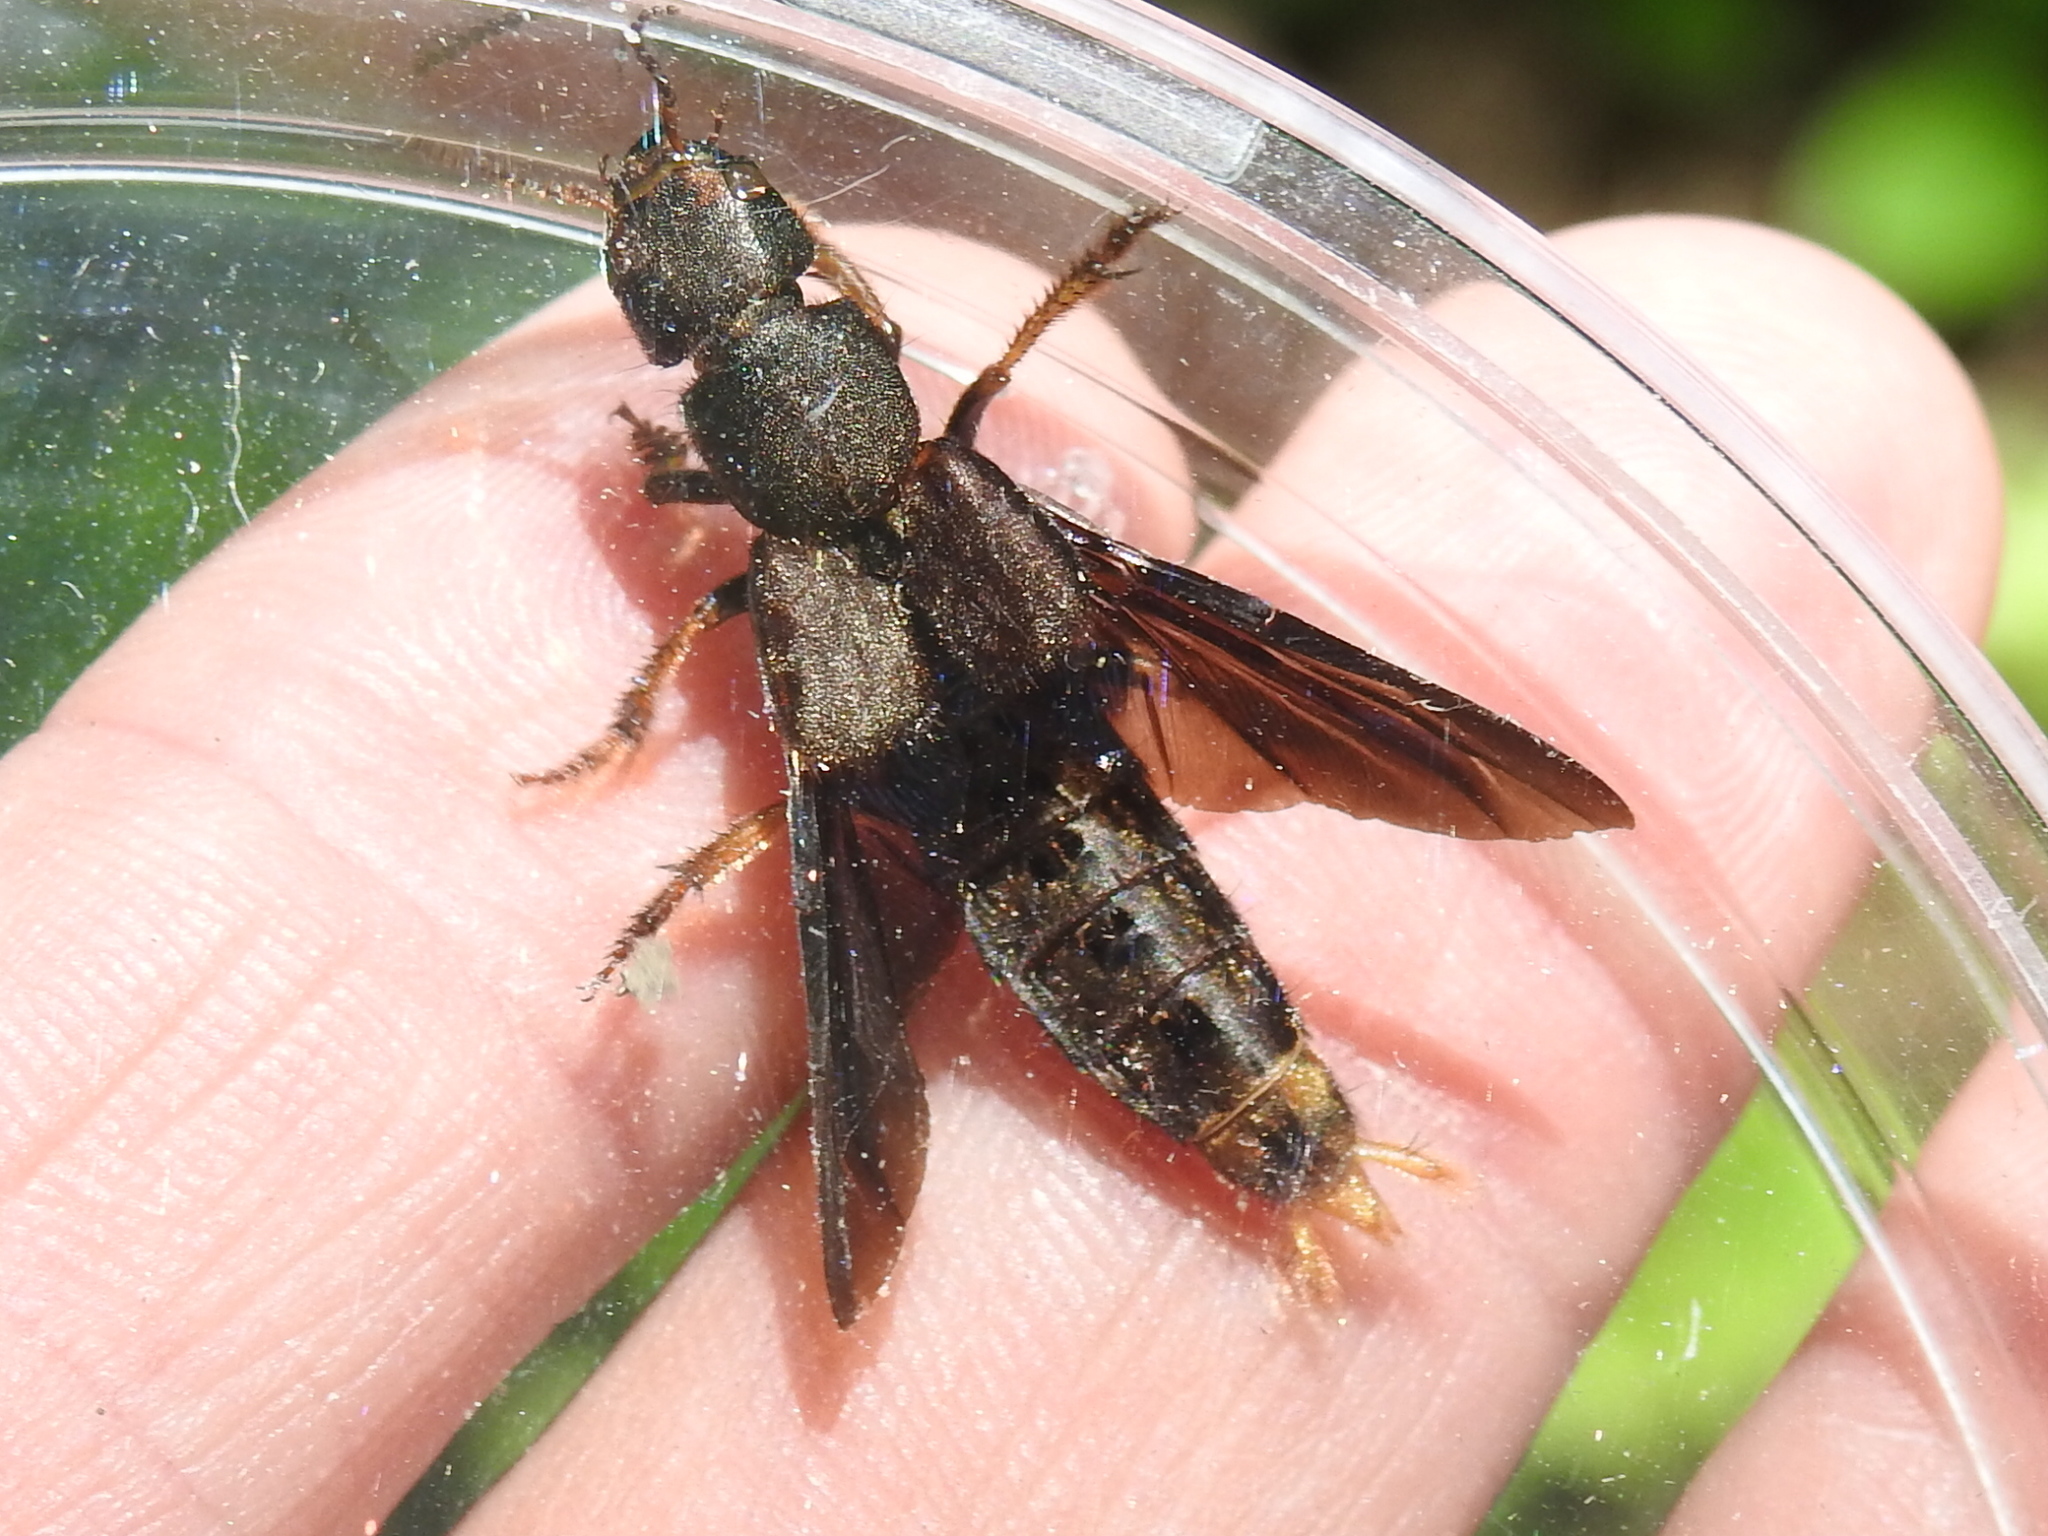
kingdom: Animalia
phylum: Arthropoda
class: Insecta
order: Coleoptera
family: Staphylinidae
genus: Platydracus
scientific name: Platydracus maculosus
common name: Brown rove beetle
